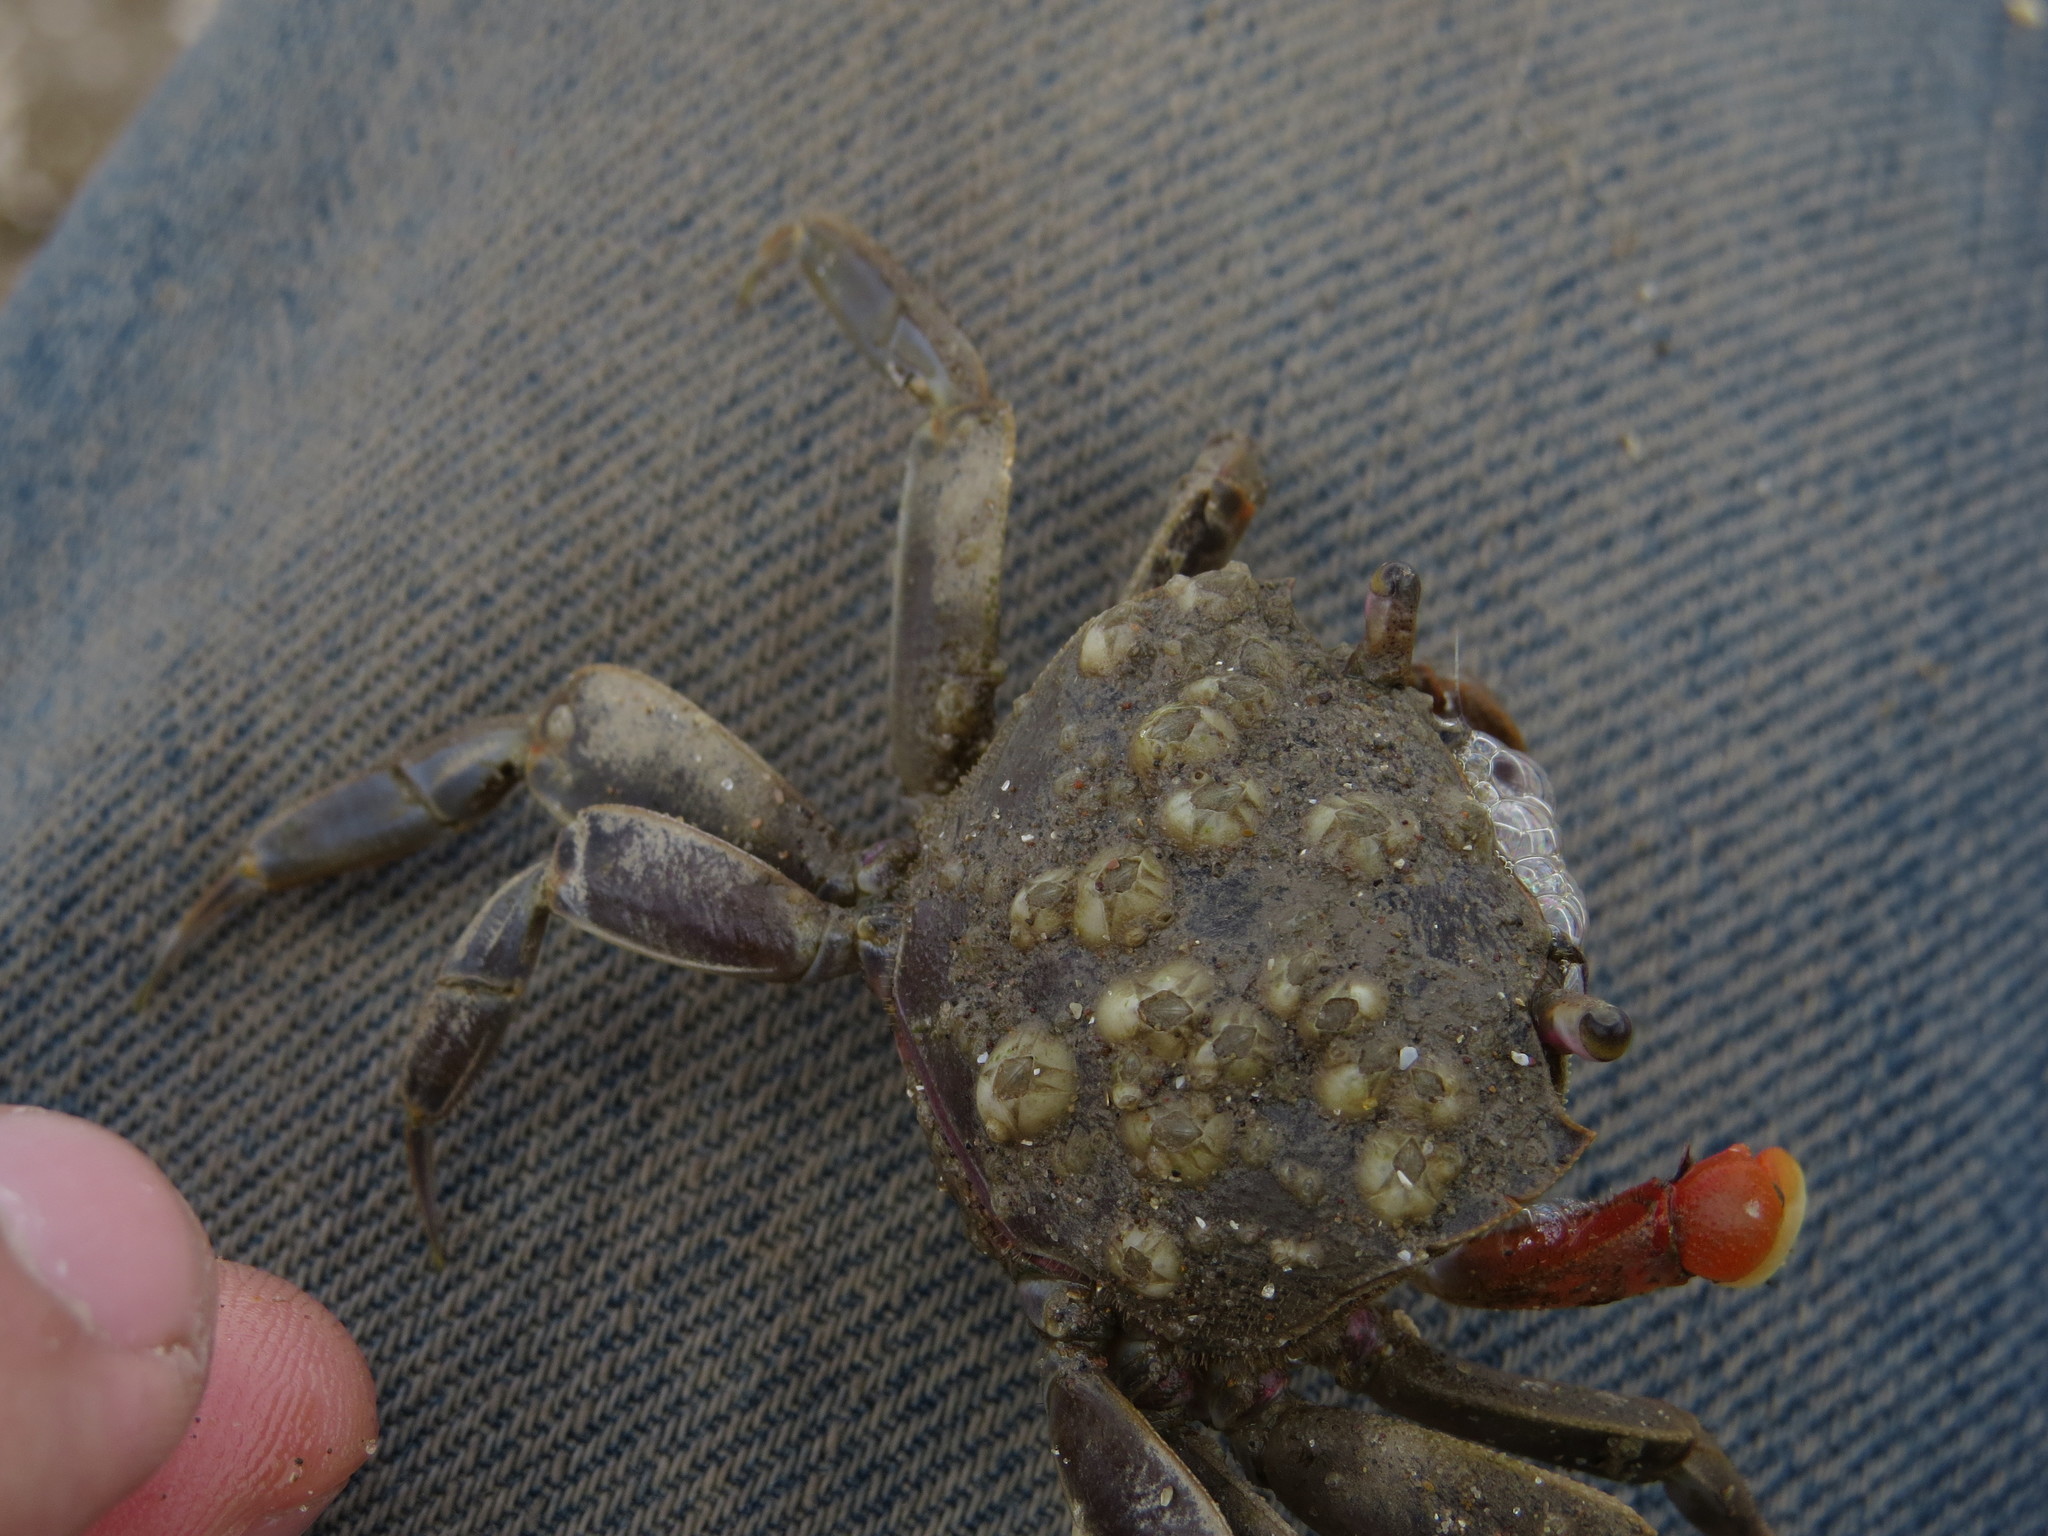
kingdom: Animalia
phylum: Arthropoda
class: Maxillopoda
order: Sessilia
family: Balanidae
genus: Amphibalanus
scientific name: Amphibalanus improvisus
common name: Bay barnacle
